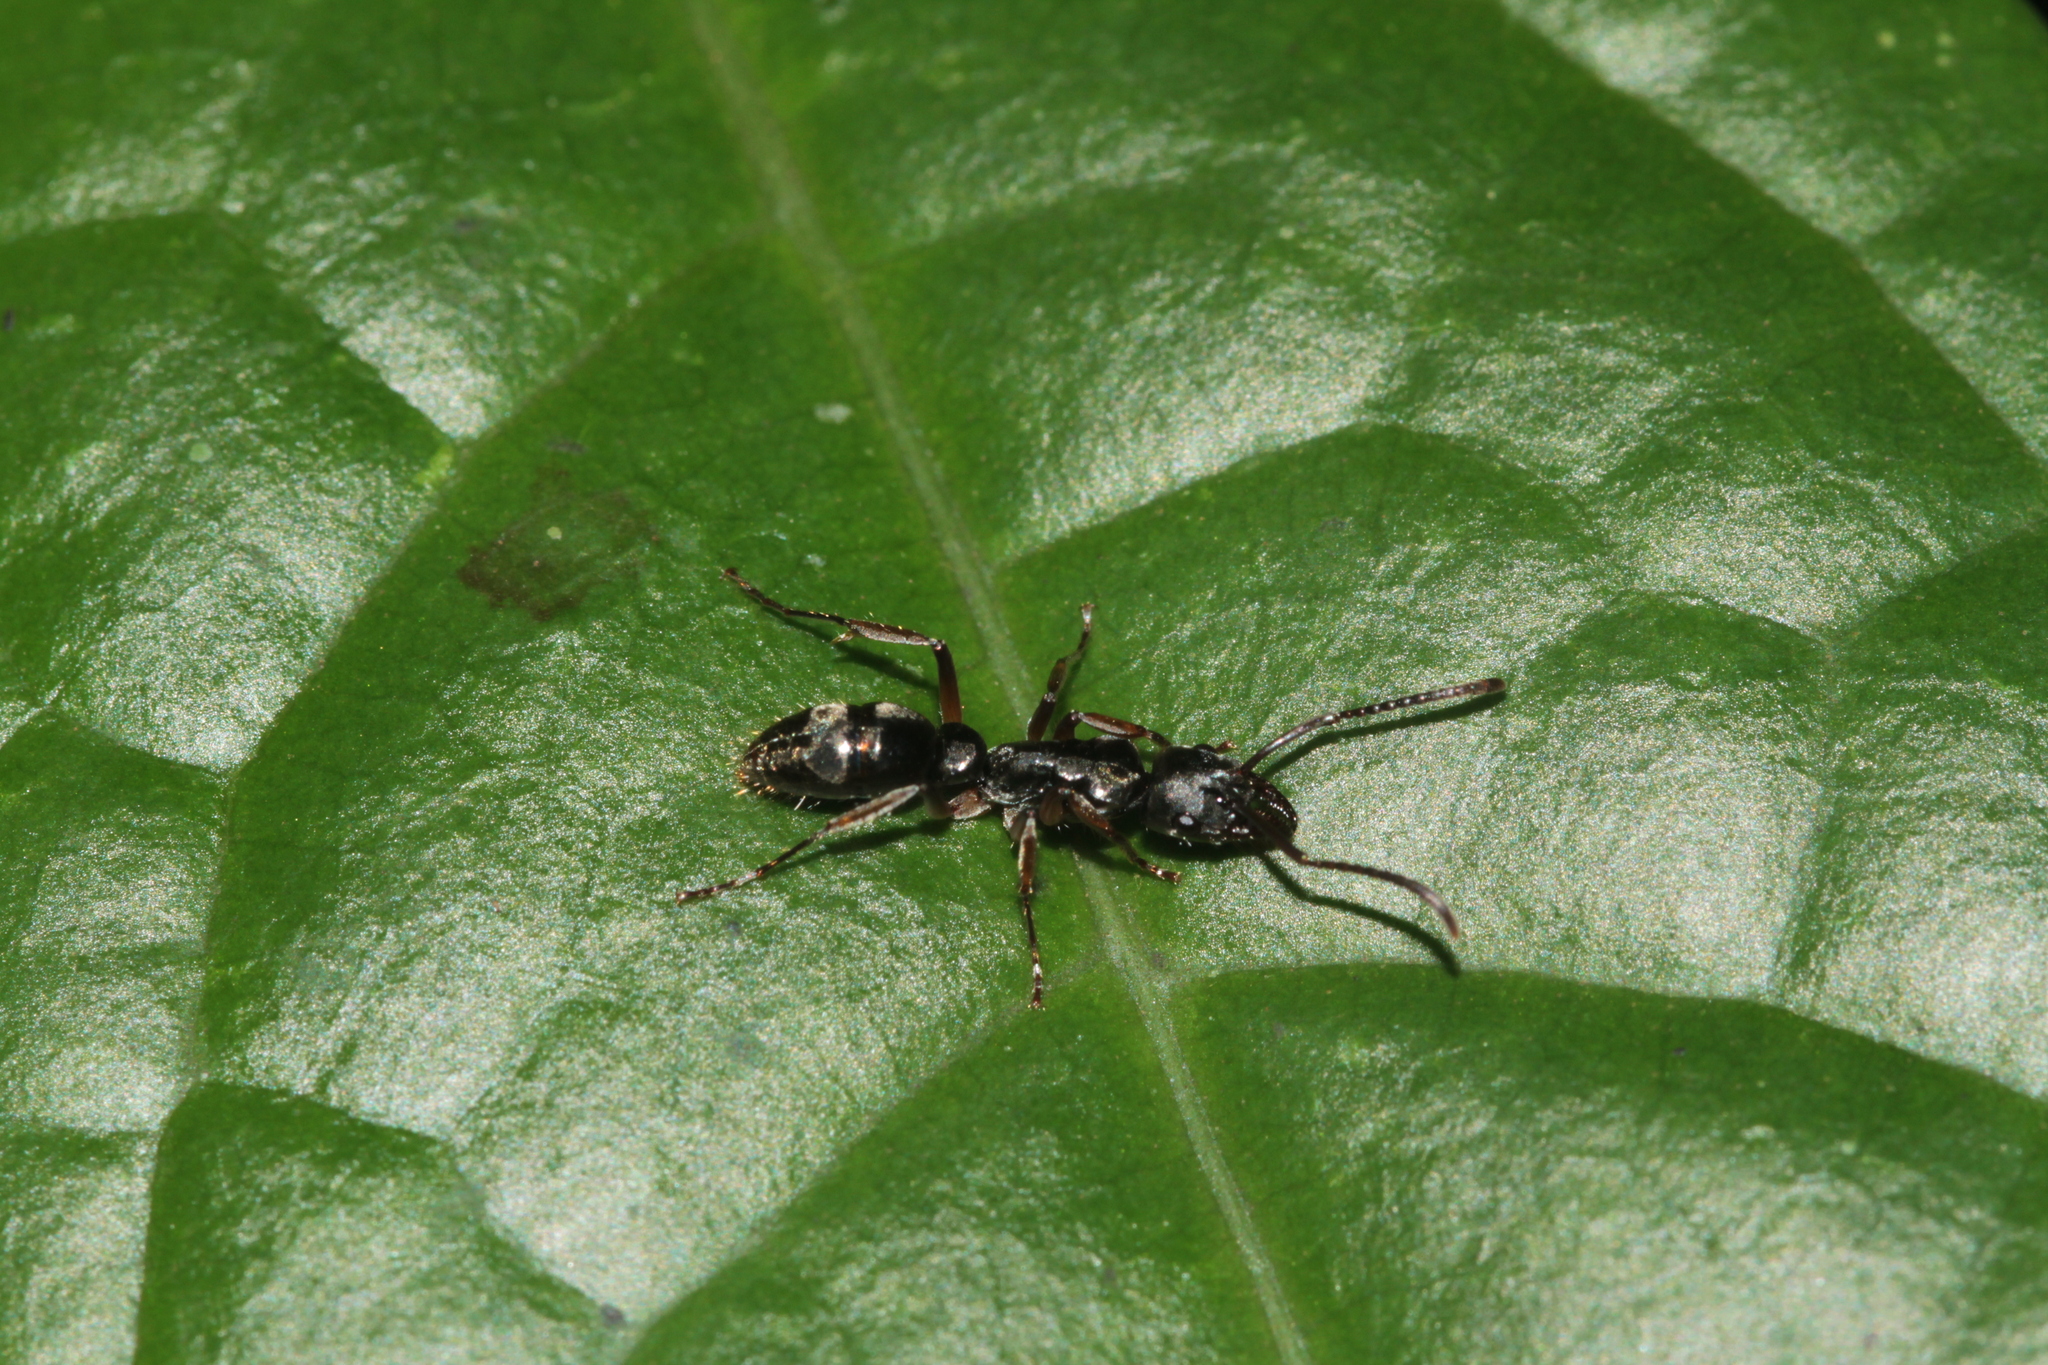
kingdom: Animalia
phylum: Arthropoda
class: Insecta
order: Hymenoptera
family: Formicidae
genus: Pachycondyla
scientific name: Pachycondyla unidentata
